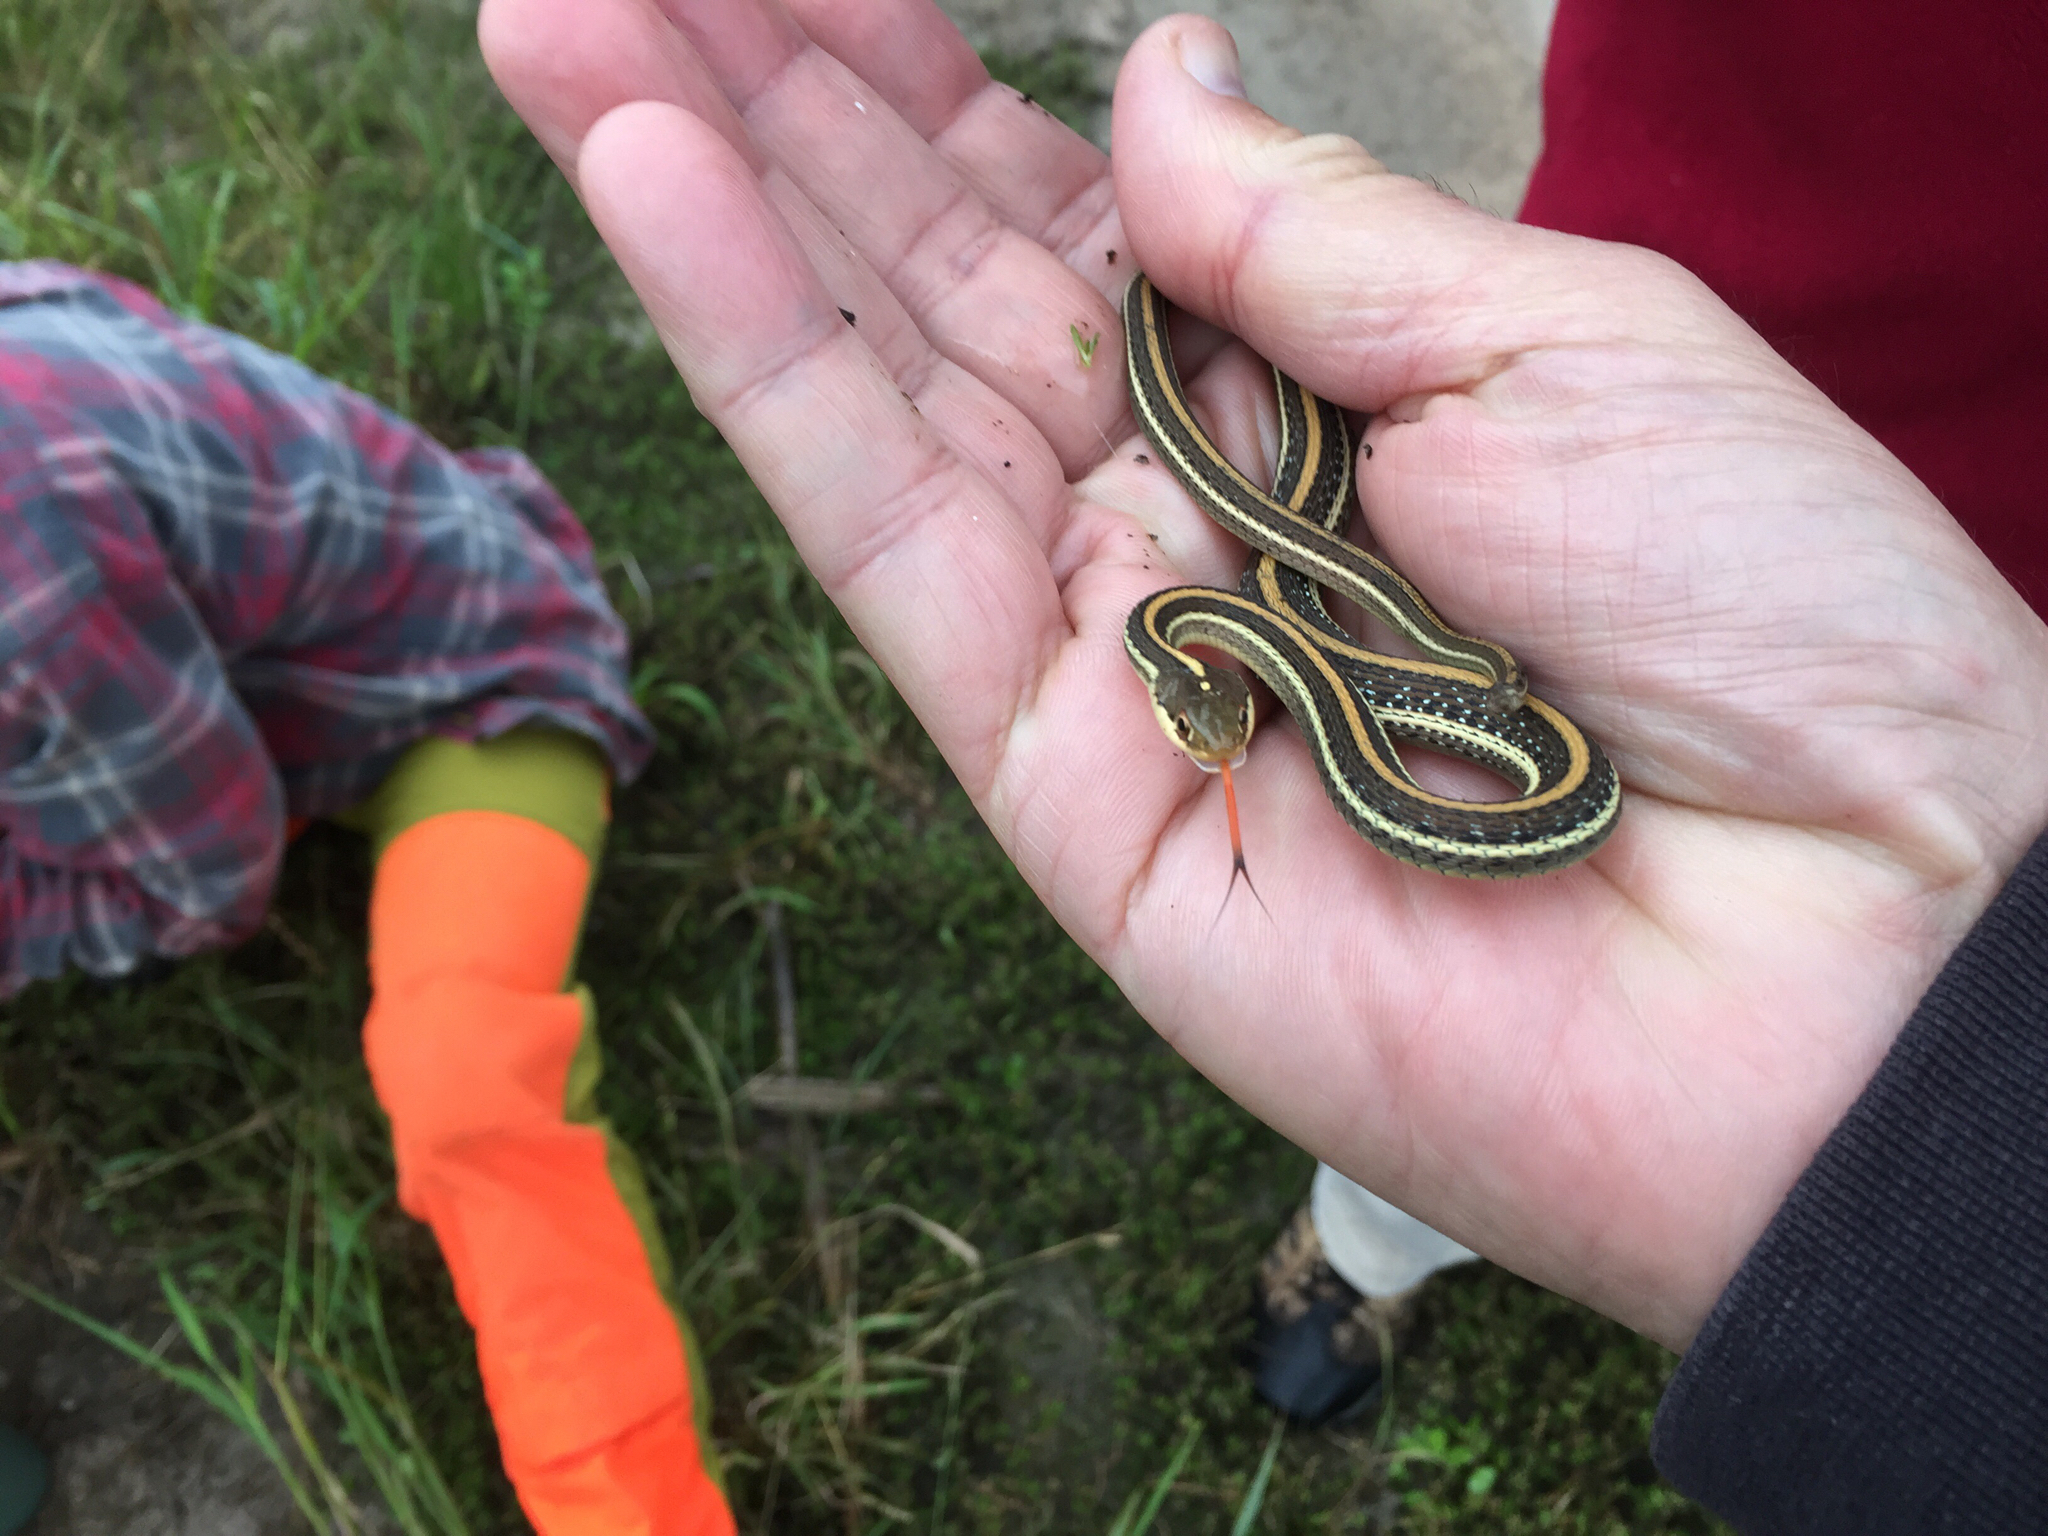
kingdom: Animalia
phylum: Chordata
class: Squamata
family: Colubridae
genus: Thamnophis
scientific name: Thamnophis proximus
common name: Western ribbon snake
